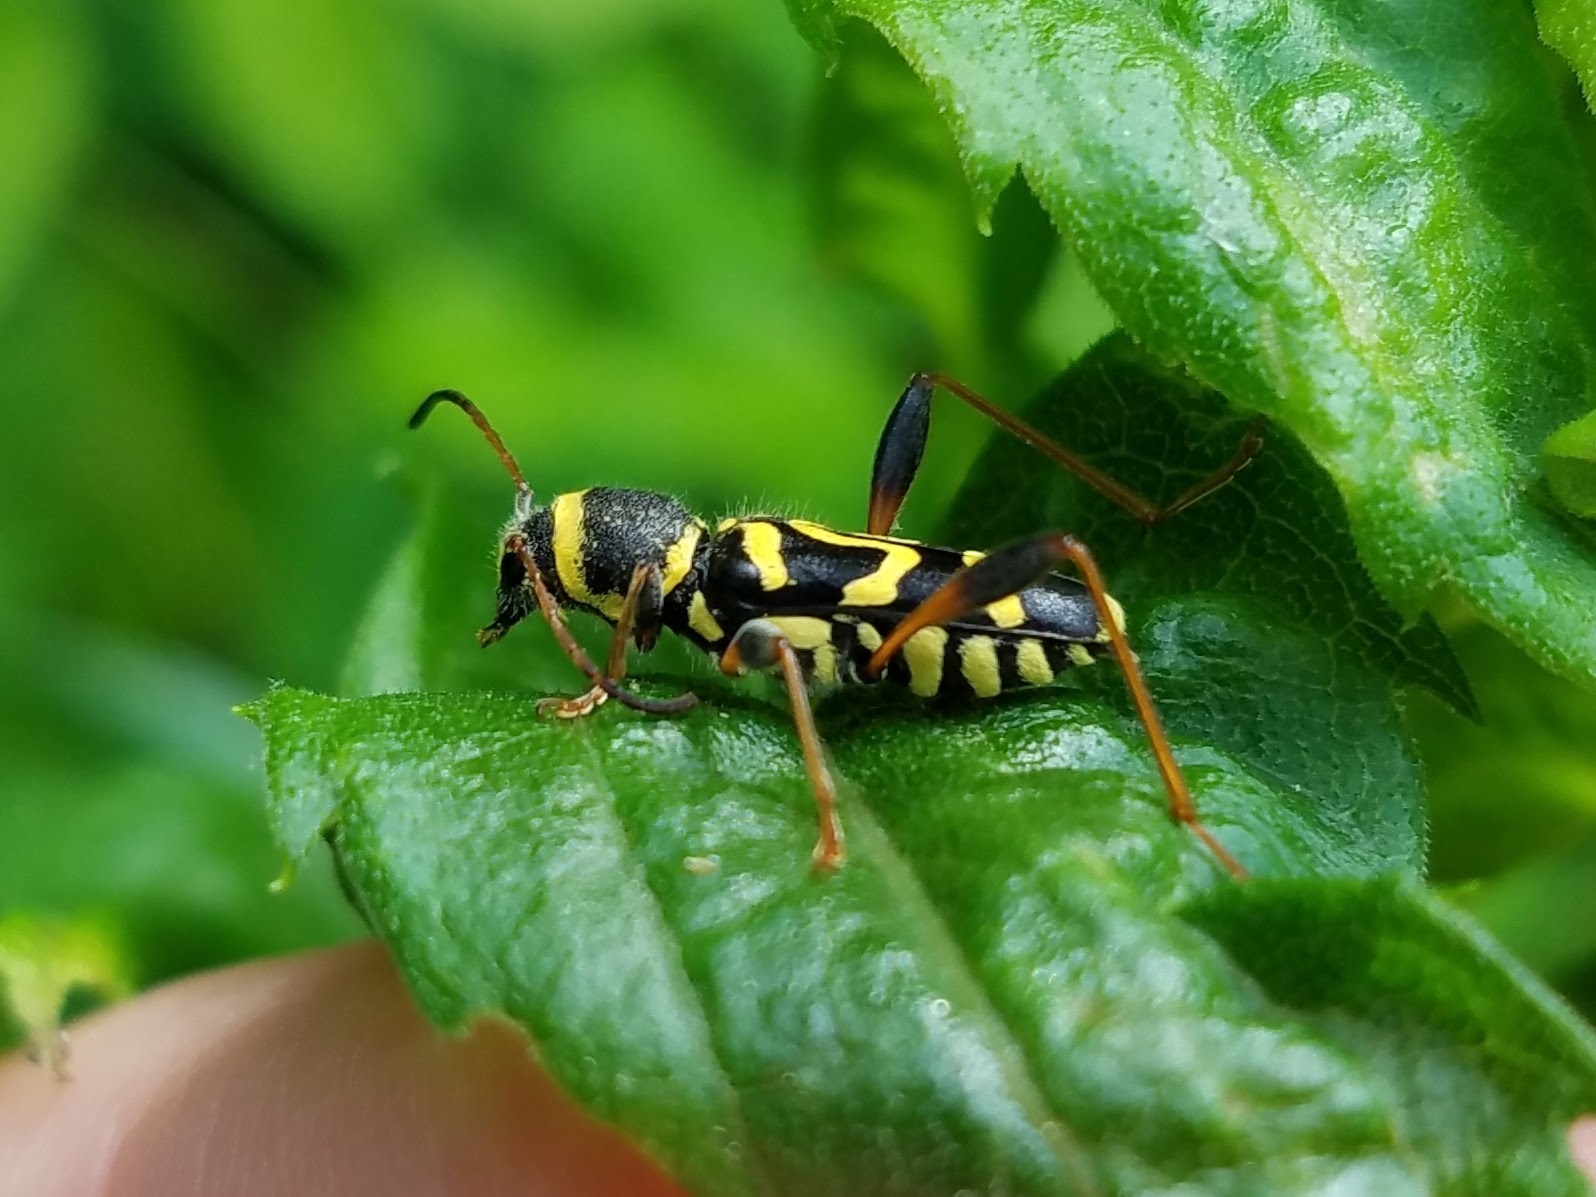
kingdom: Animalia
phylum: Arthropoda
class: Insecta
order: Coleoptera
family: Cerambycidae
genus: Clytus
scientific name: Clytus ruricola
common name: Round-necked longhorn beetle
